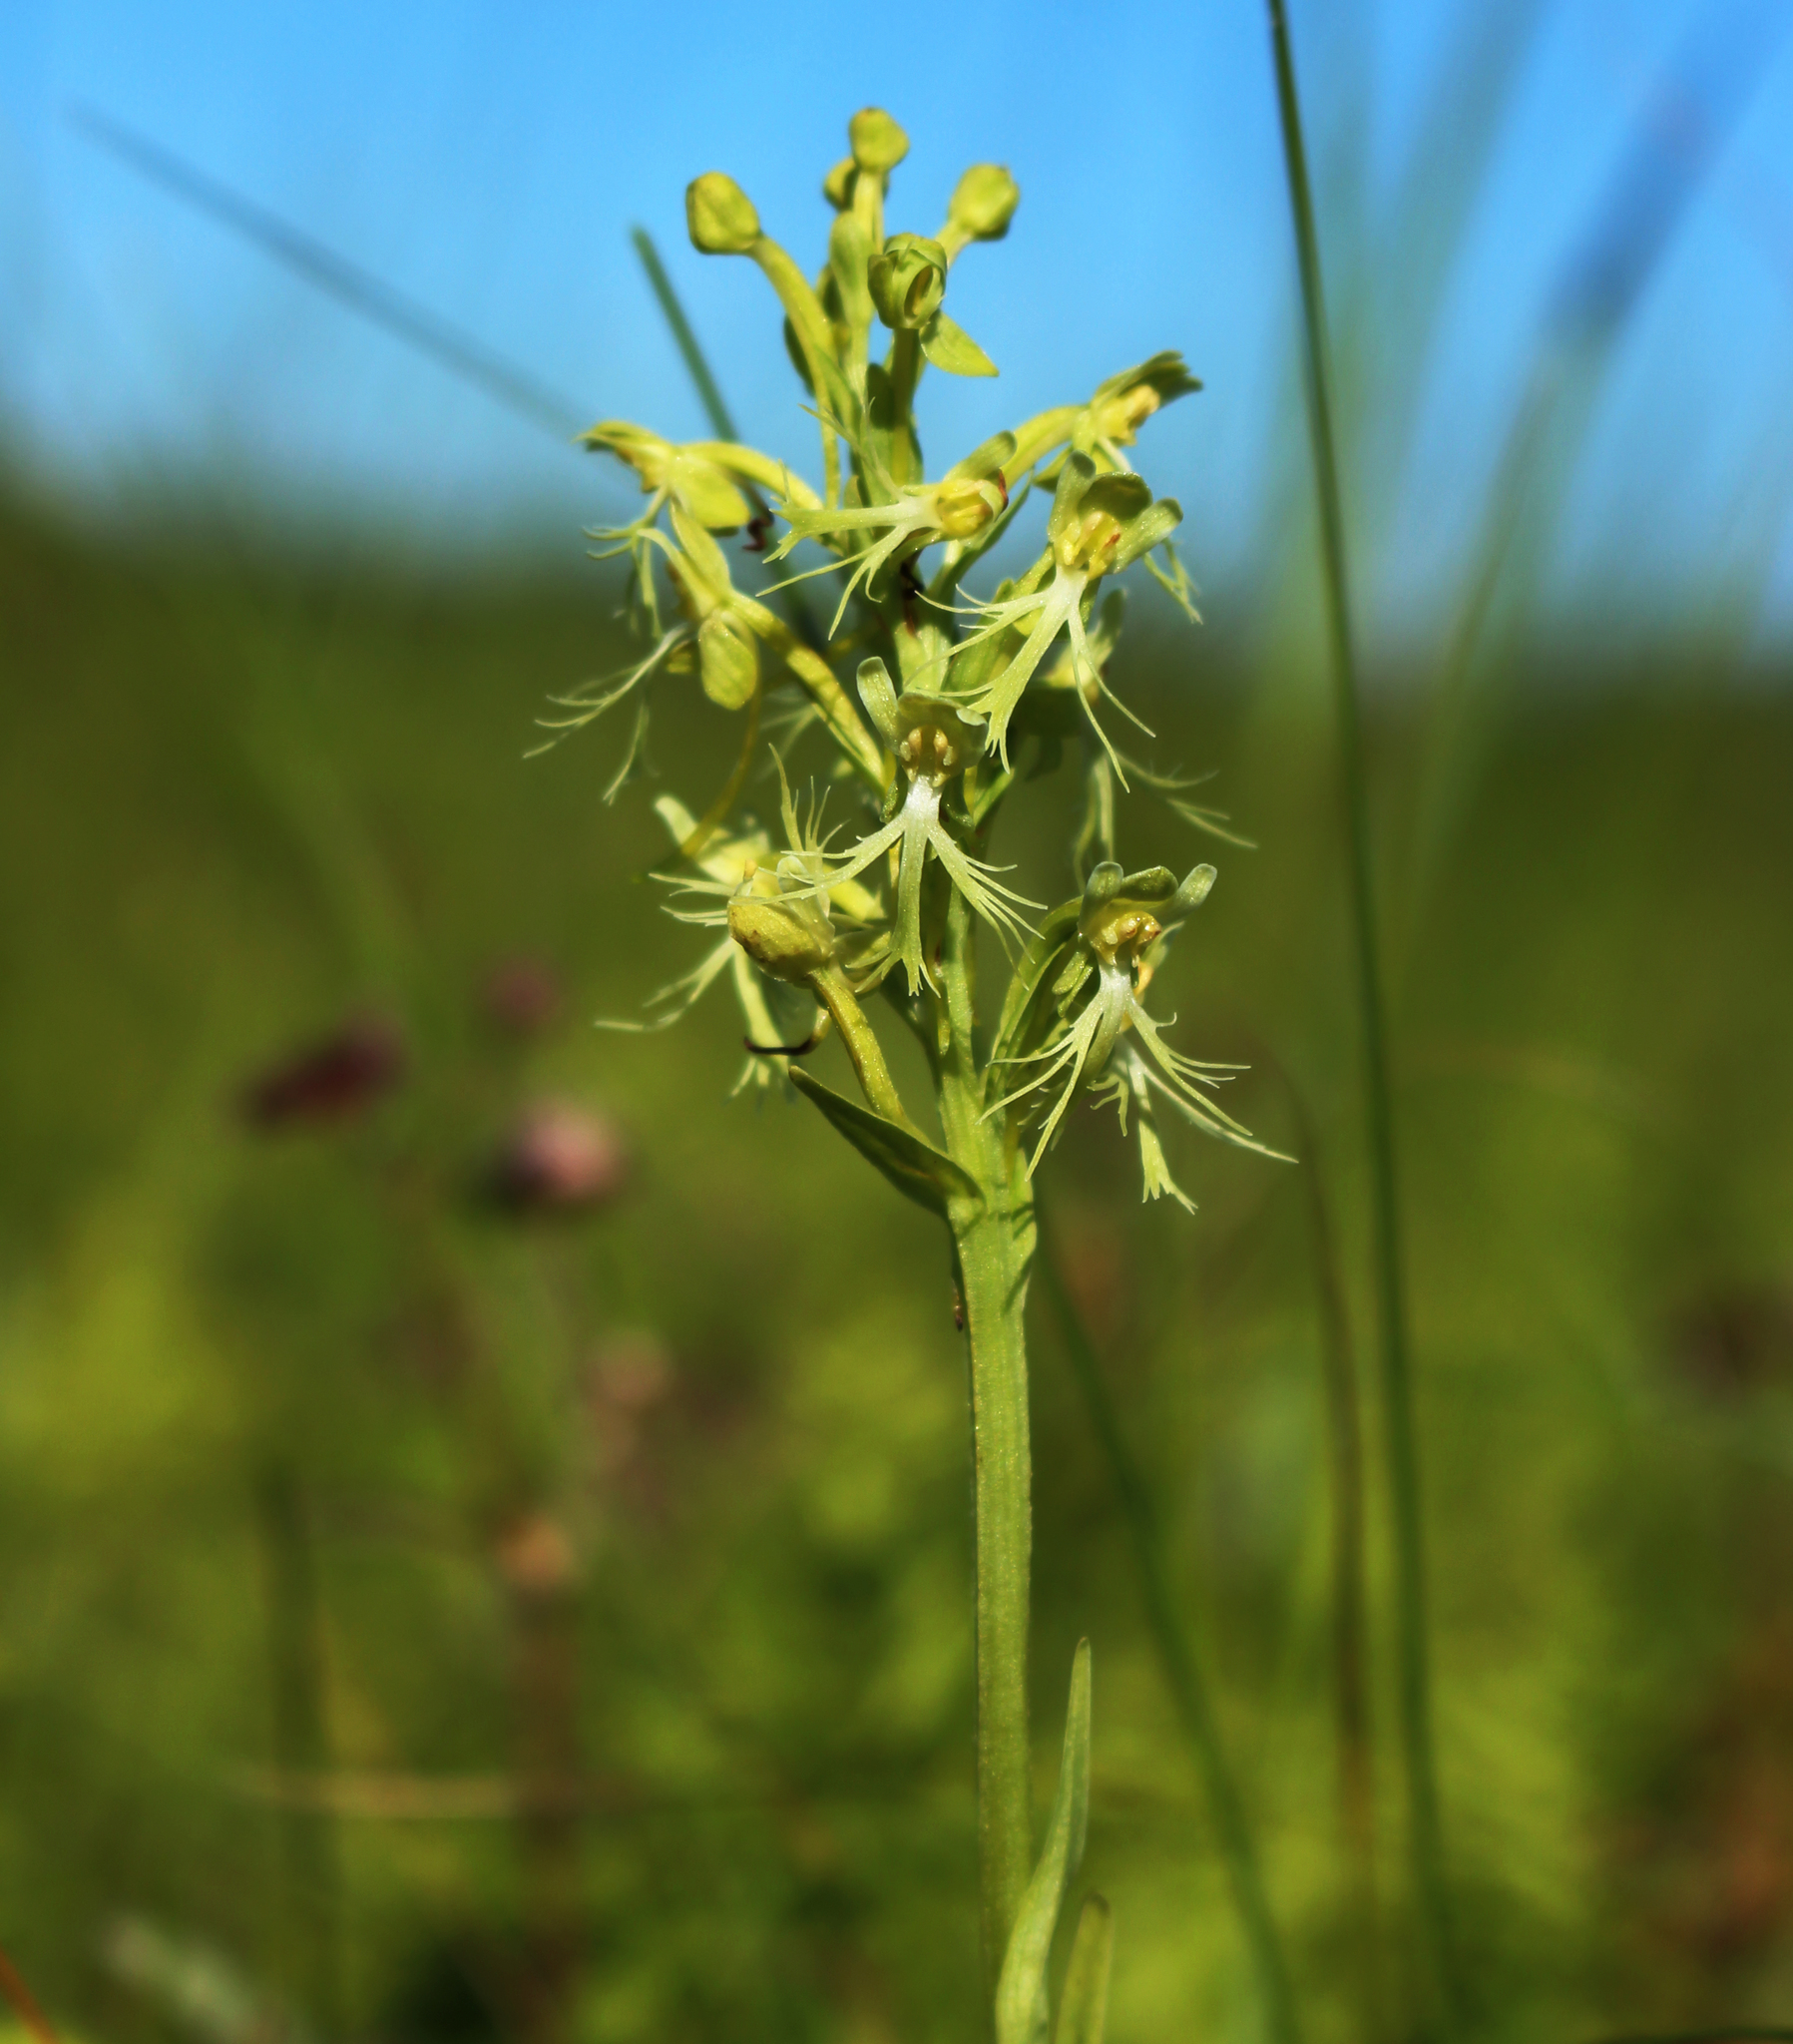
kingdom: Plantae
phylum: Tracheophyta
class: Liliopsida
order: Asparagales
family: Orchidaceae
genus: Platanthera
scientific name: Platanthera lacera
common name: Green fringed orchid
